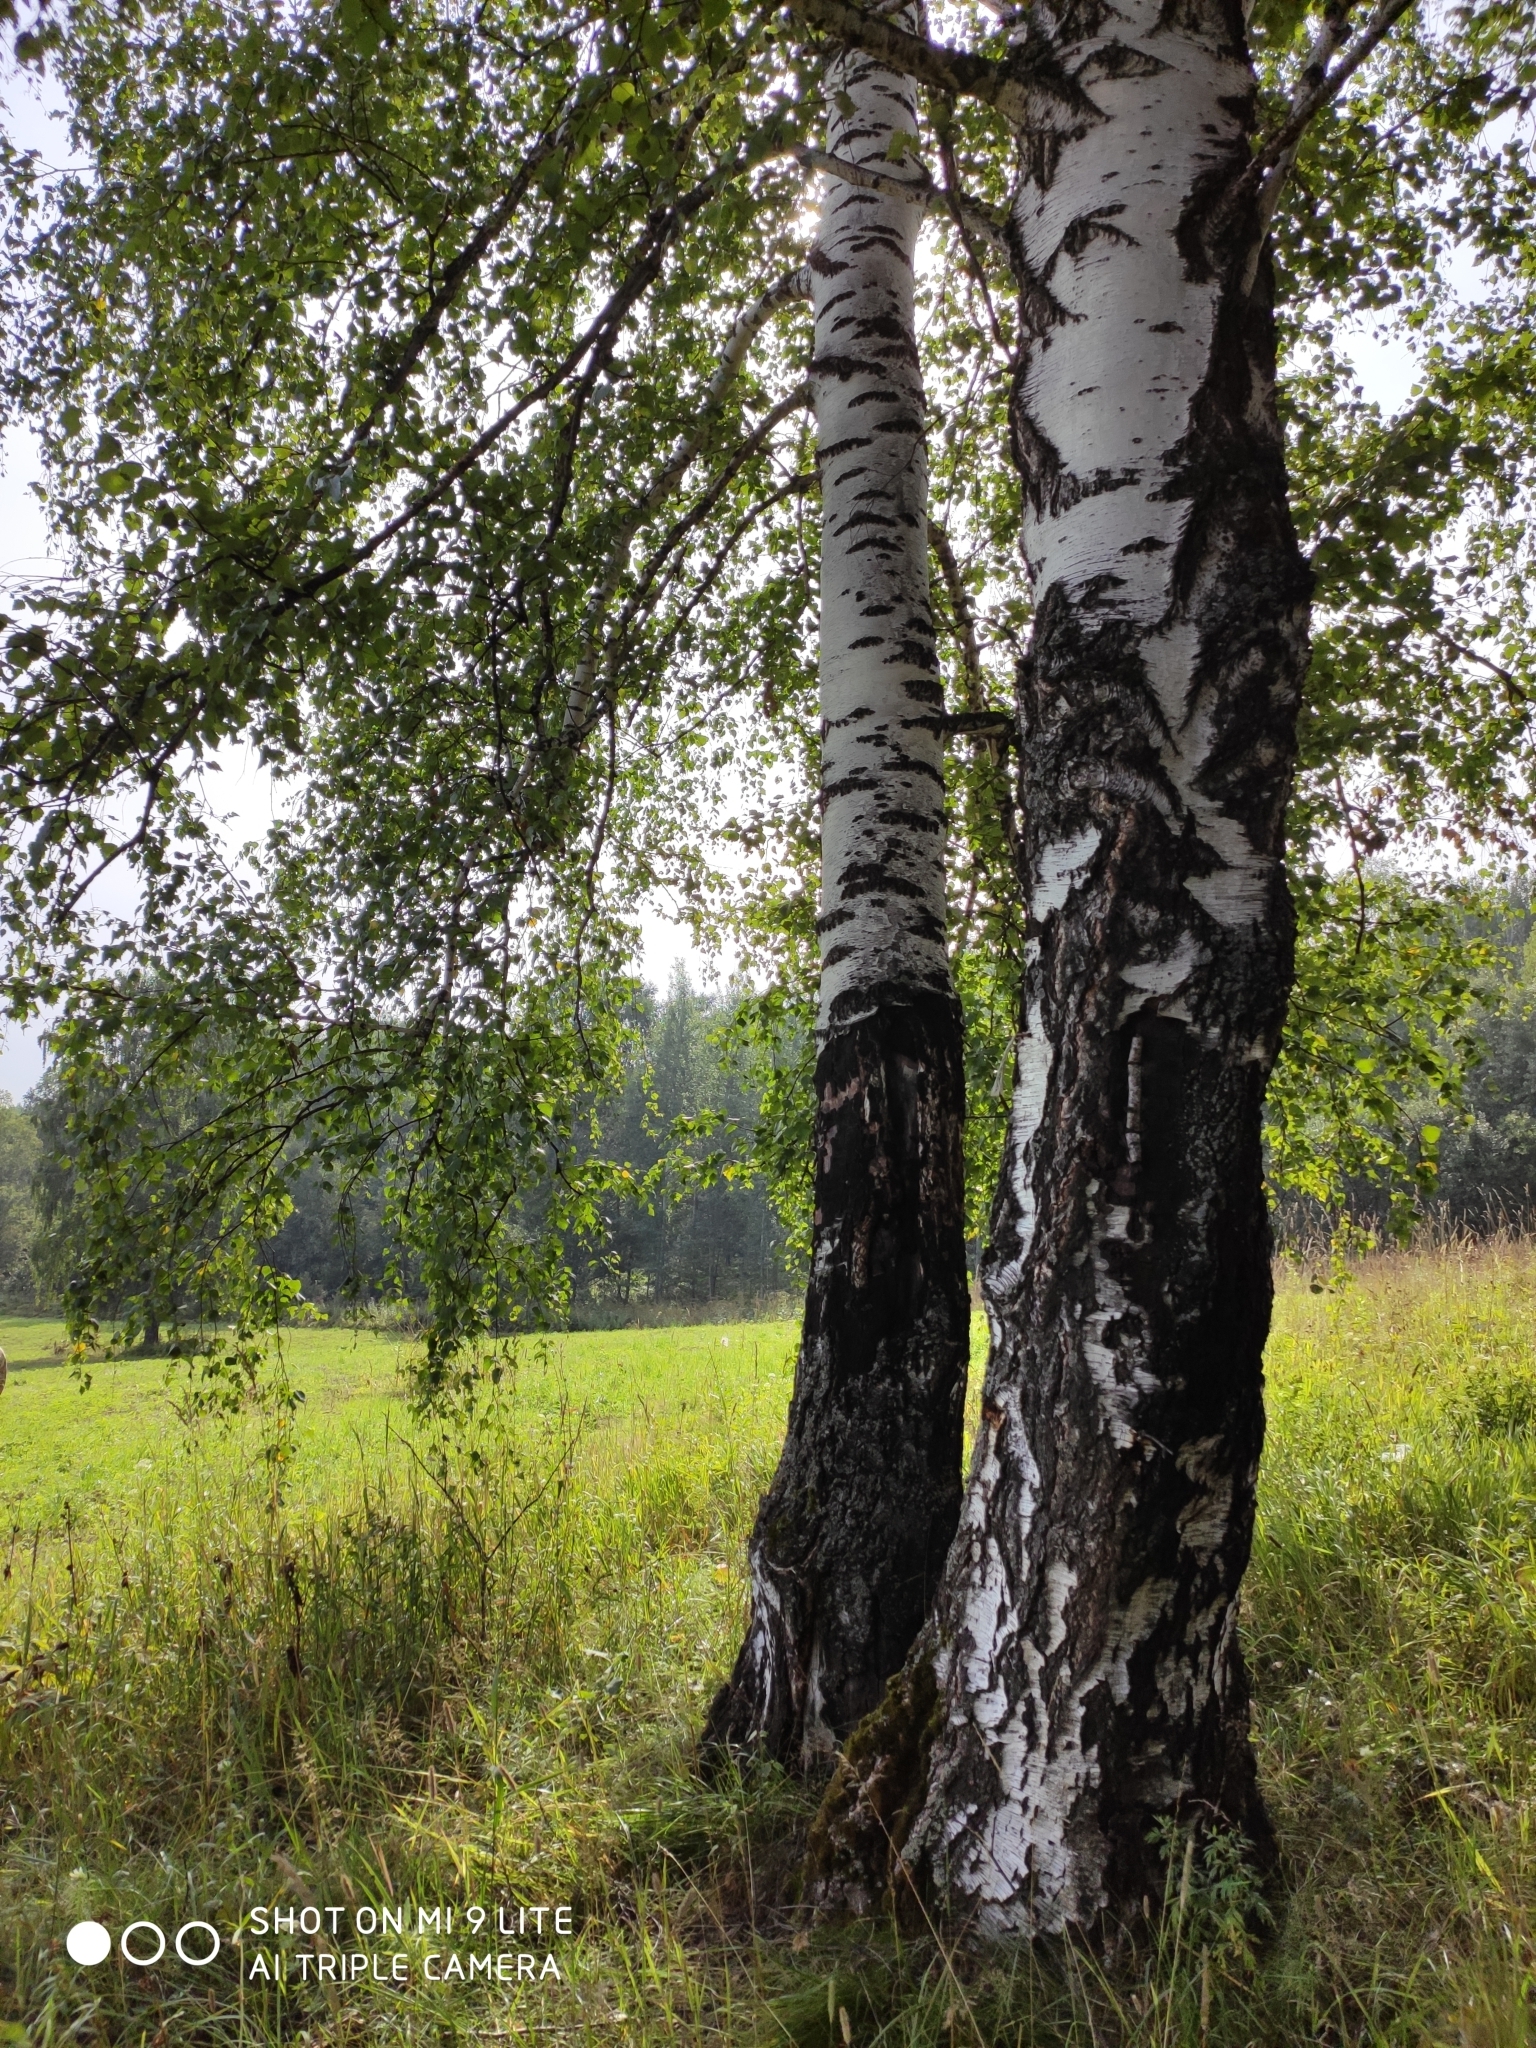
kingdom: Plantae
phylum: Tracheophyta
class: Magnoliopsida
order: Fagales
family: Betulaceae
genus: Betula
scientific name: Betula pendula
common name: Silver birch
